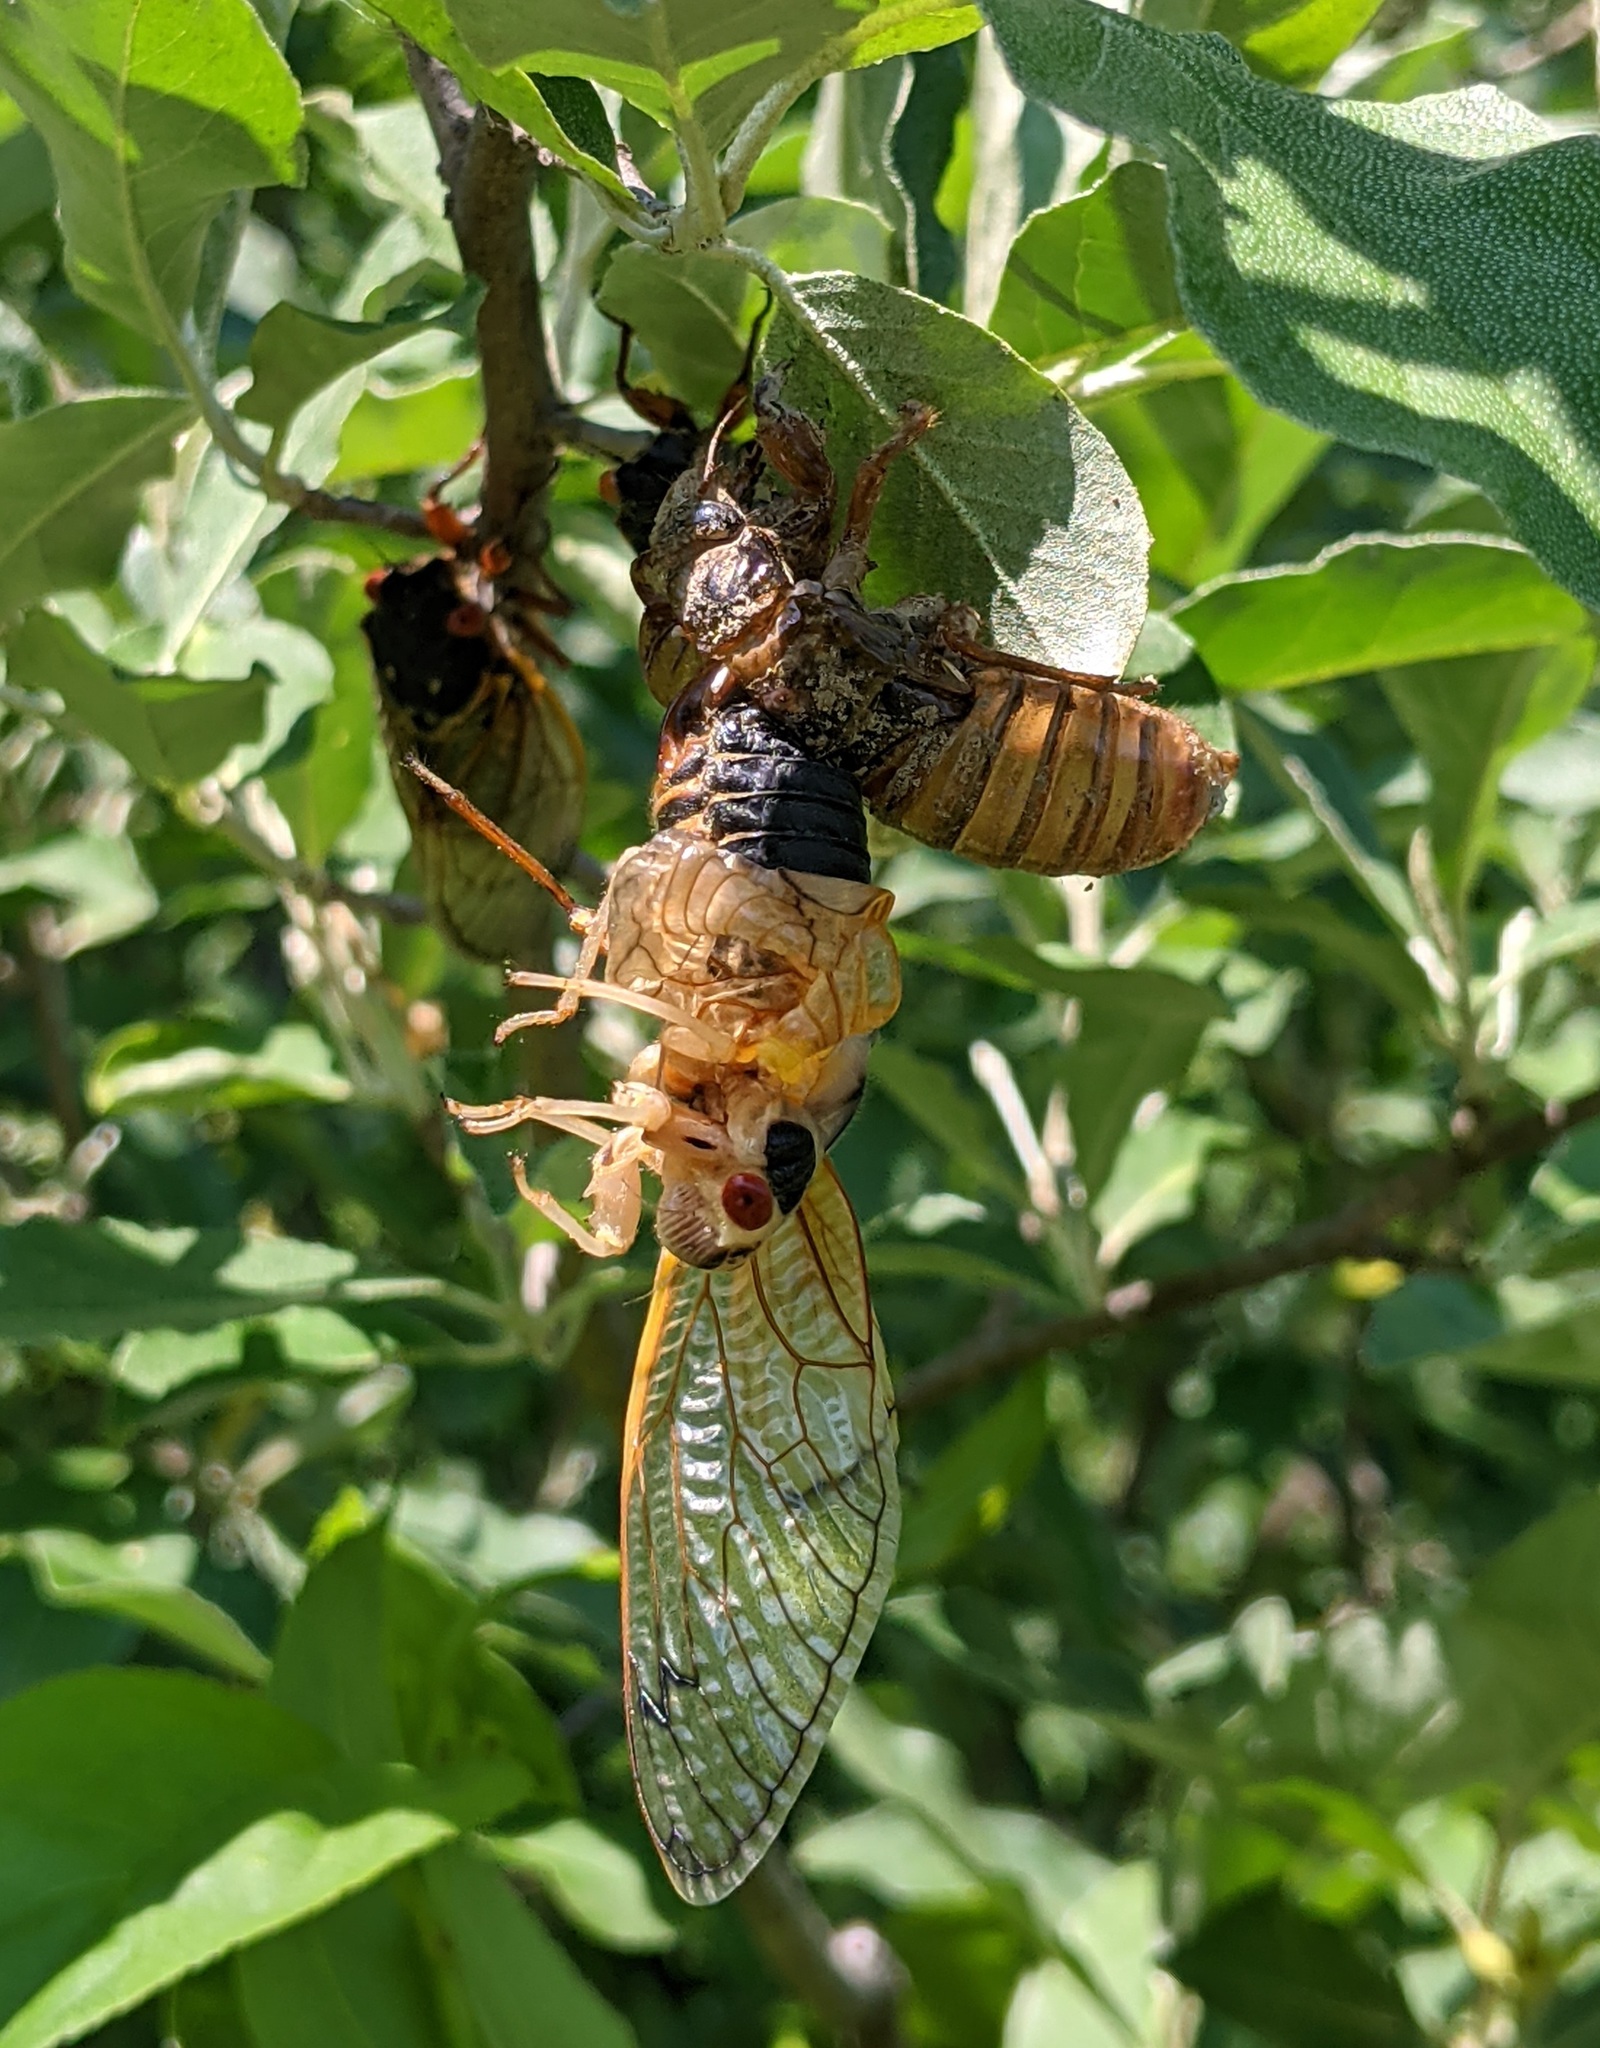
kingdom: Animalia
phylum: Arthropoda
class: Insecta
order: Hemiptera
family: Cicadidae
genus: Magicicada
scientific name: Magicicada septendecim
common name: Periodical cicada
